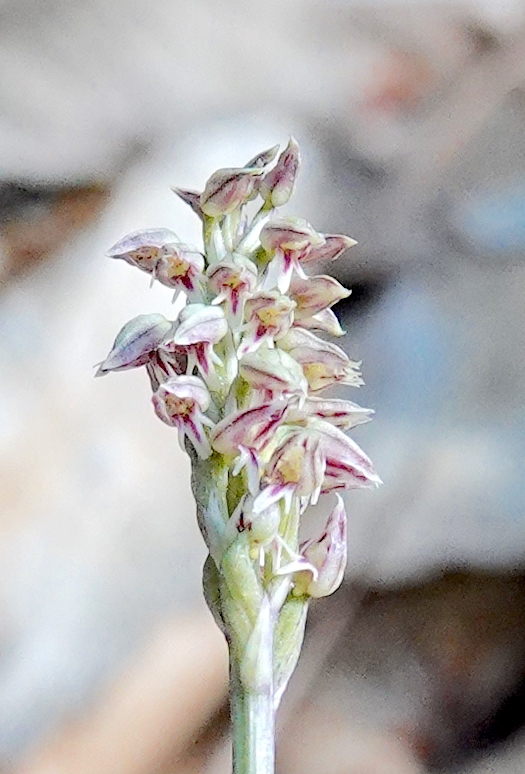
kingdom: Plantae
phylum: Tracheophyta
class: Liliopsida
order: Asparagales
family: Orchidaceae
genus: Neotinea
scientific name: Neotinea maculata
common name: Dense-flowered orchid
